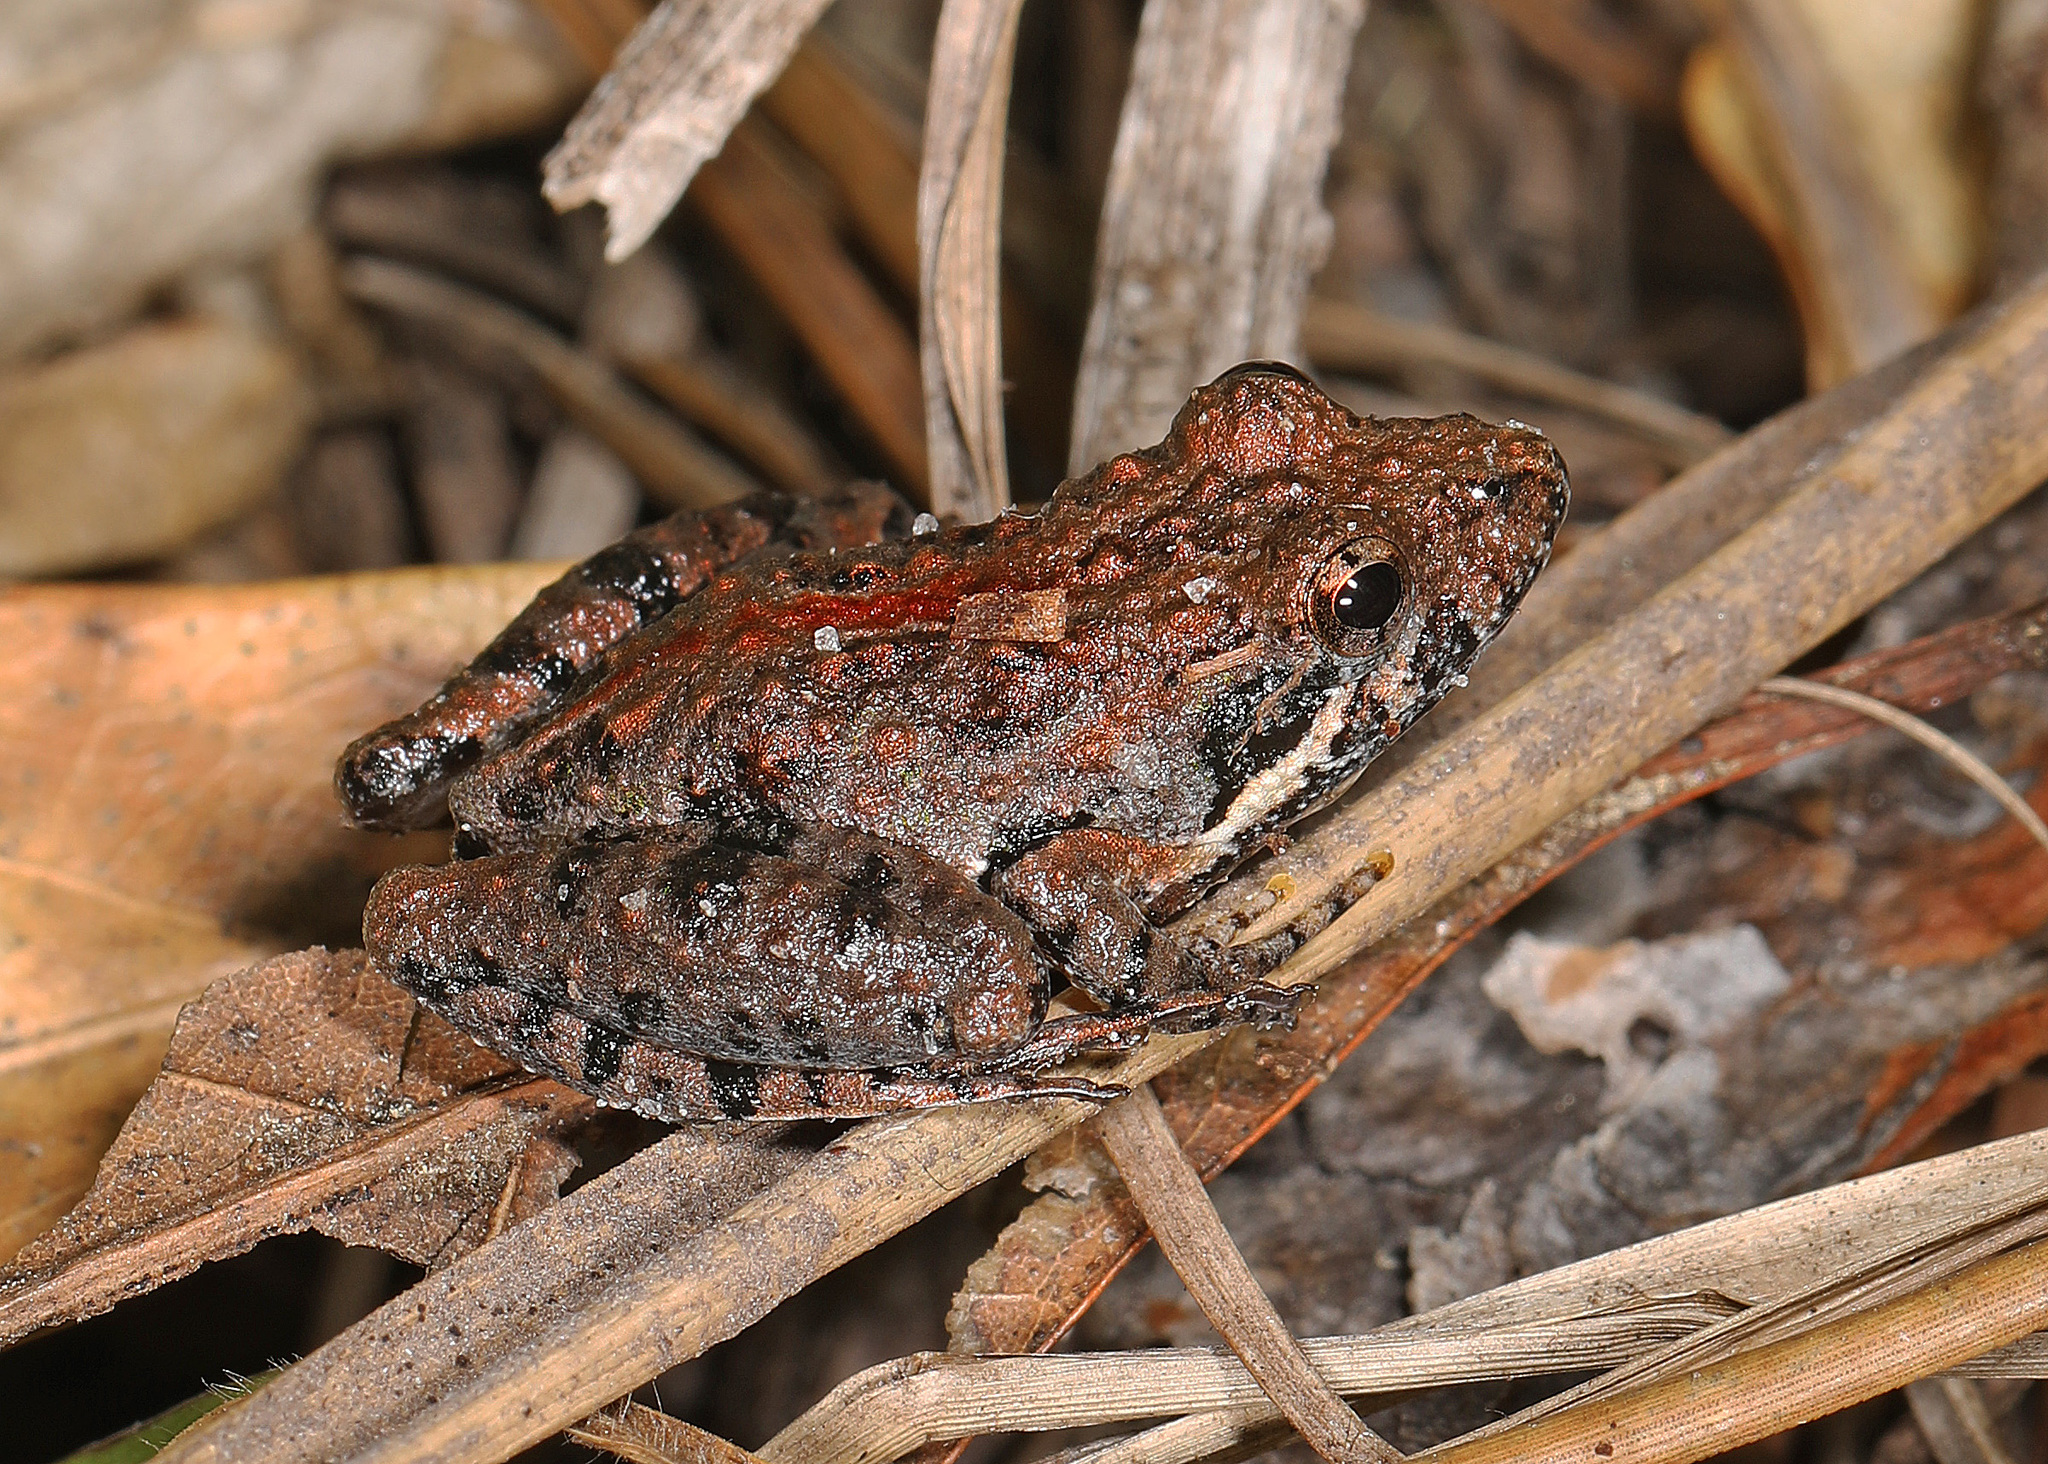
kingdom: Animalia
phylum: Chordata
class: Amphibia
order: Anura
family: Hylidae
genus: Acris
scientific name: Acris gryllus
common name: Southern cricket frog
